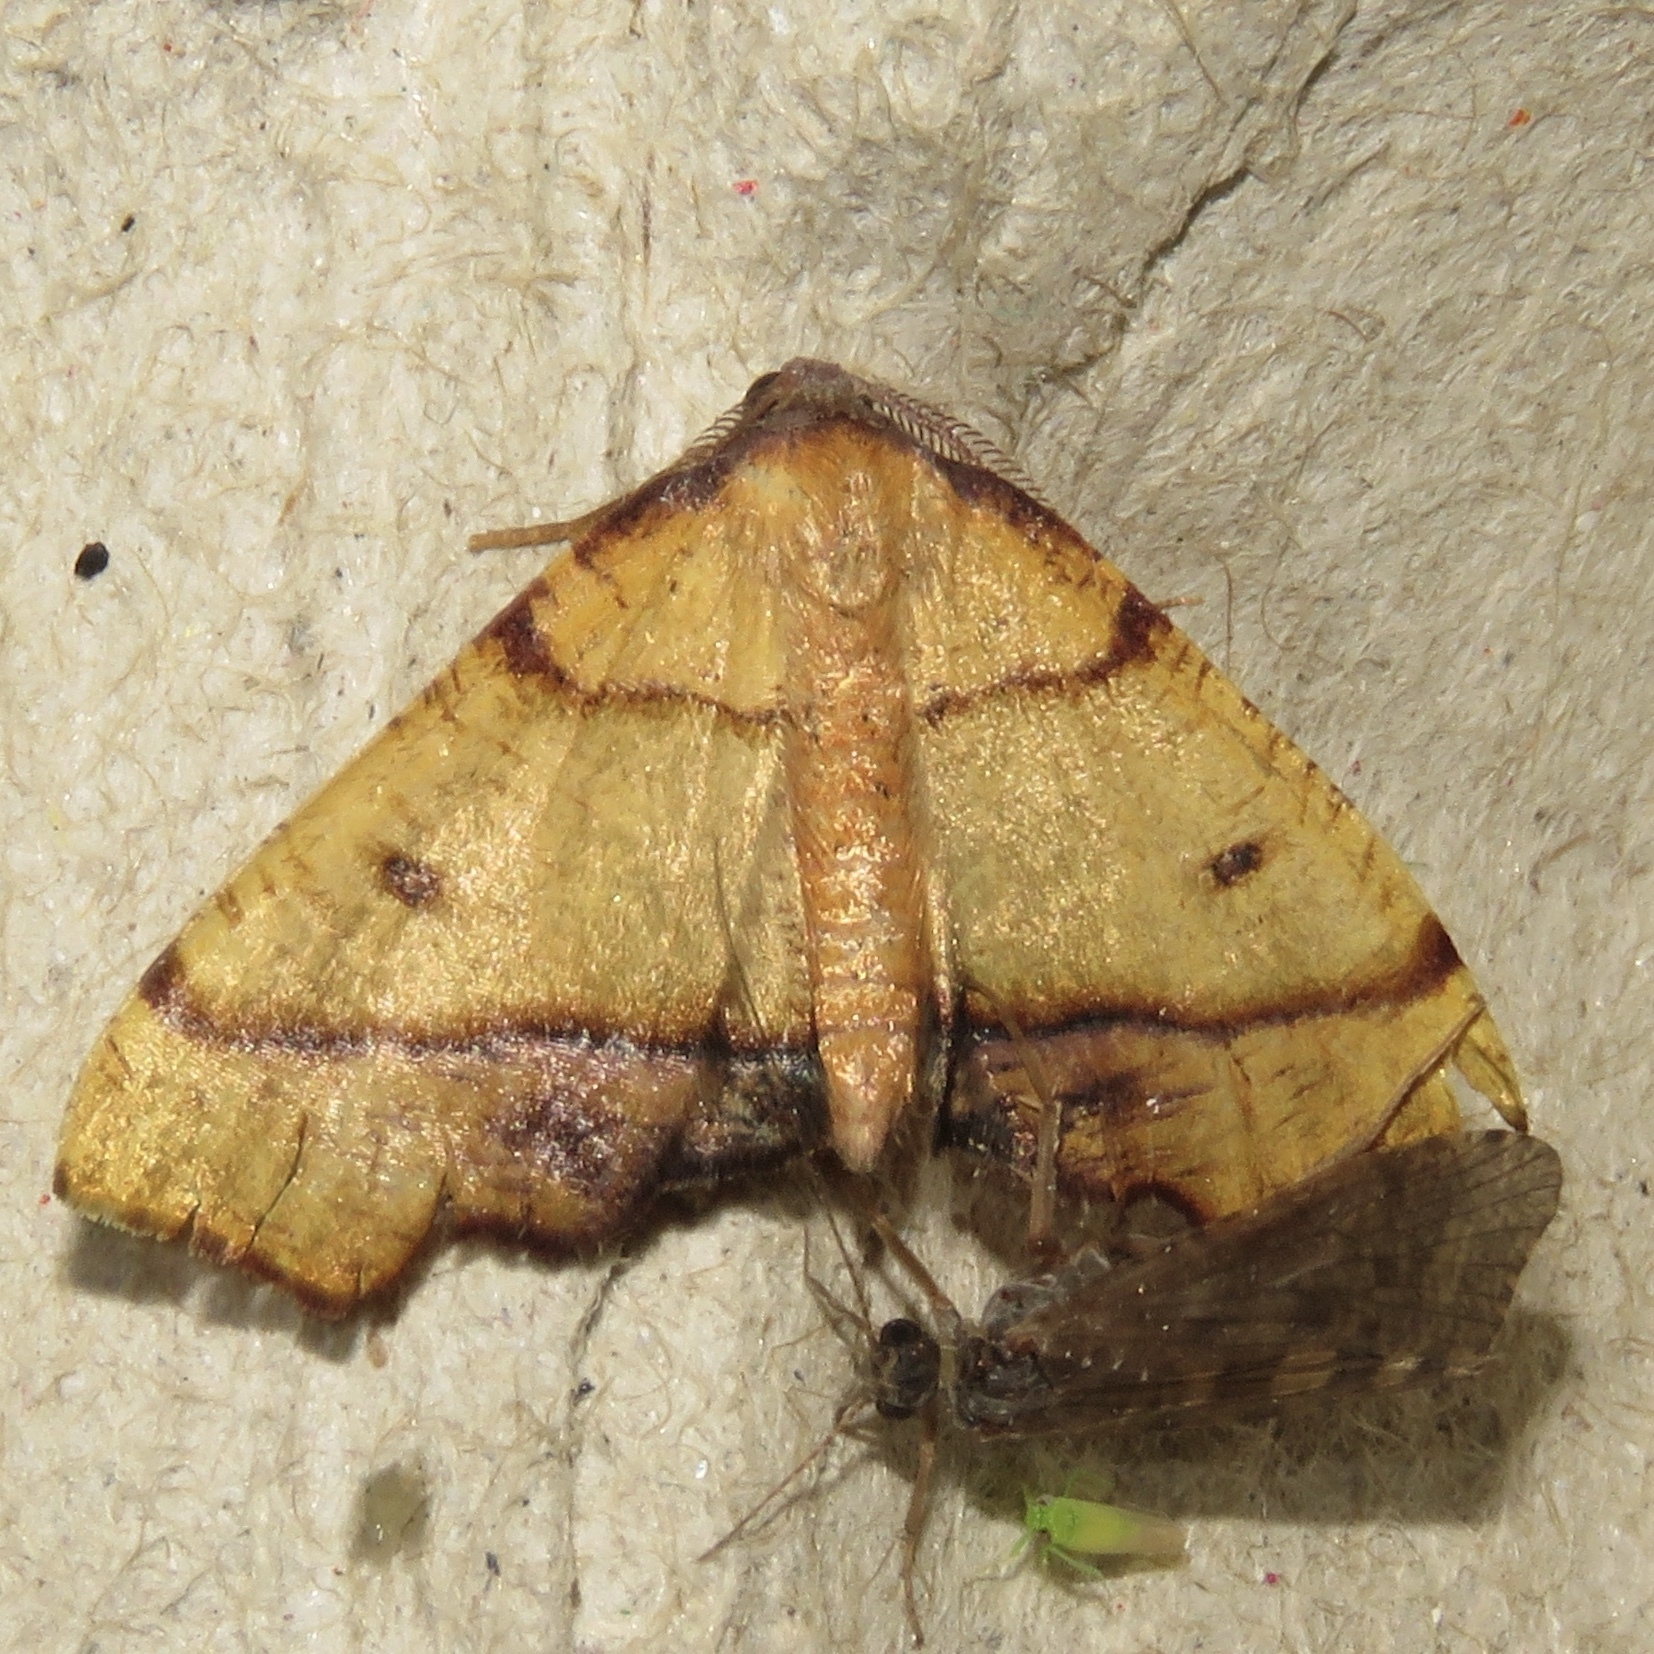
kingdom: Animalia
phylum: Arthropoda
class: Insecta
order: Lepidoptera
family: Geometridae
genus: Plagodis
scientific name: Plagodis phlogosaria
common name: Straight-lined plagodis
